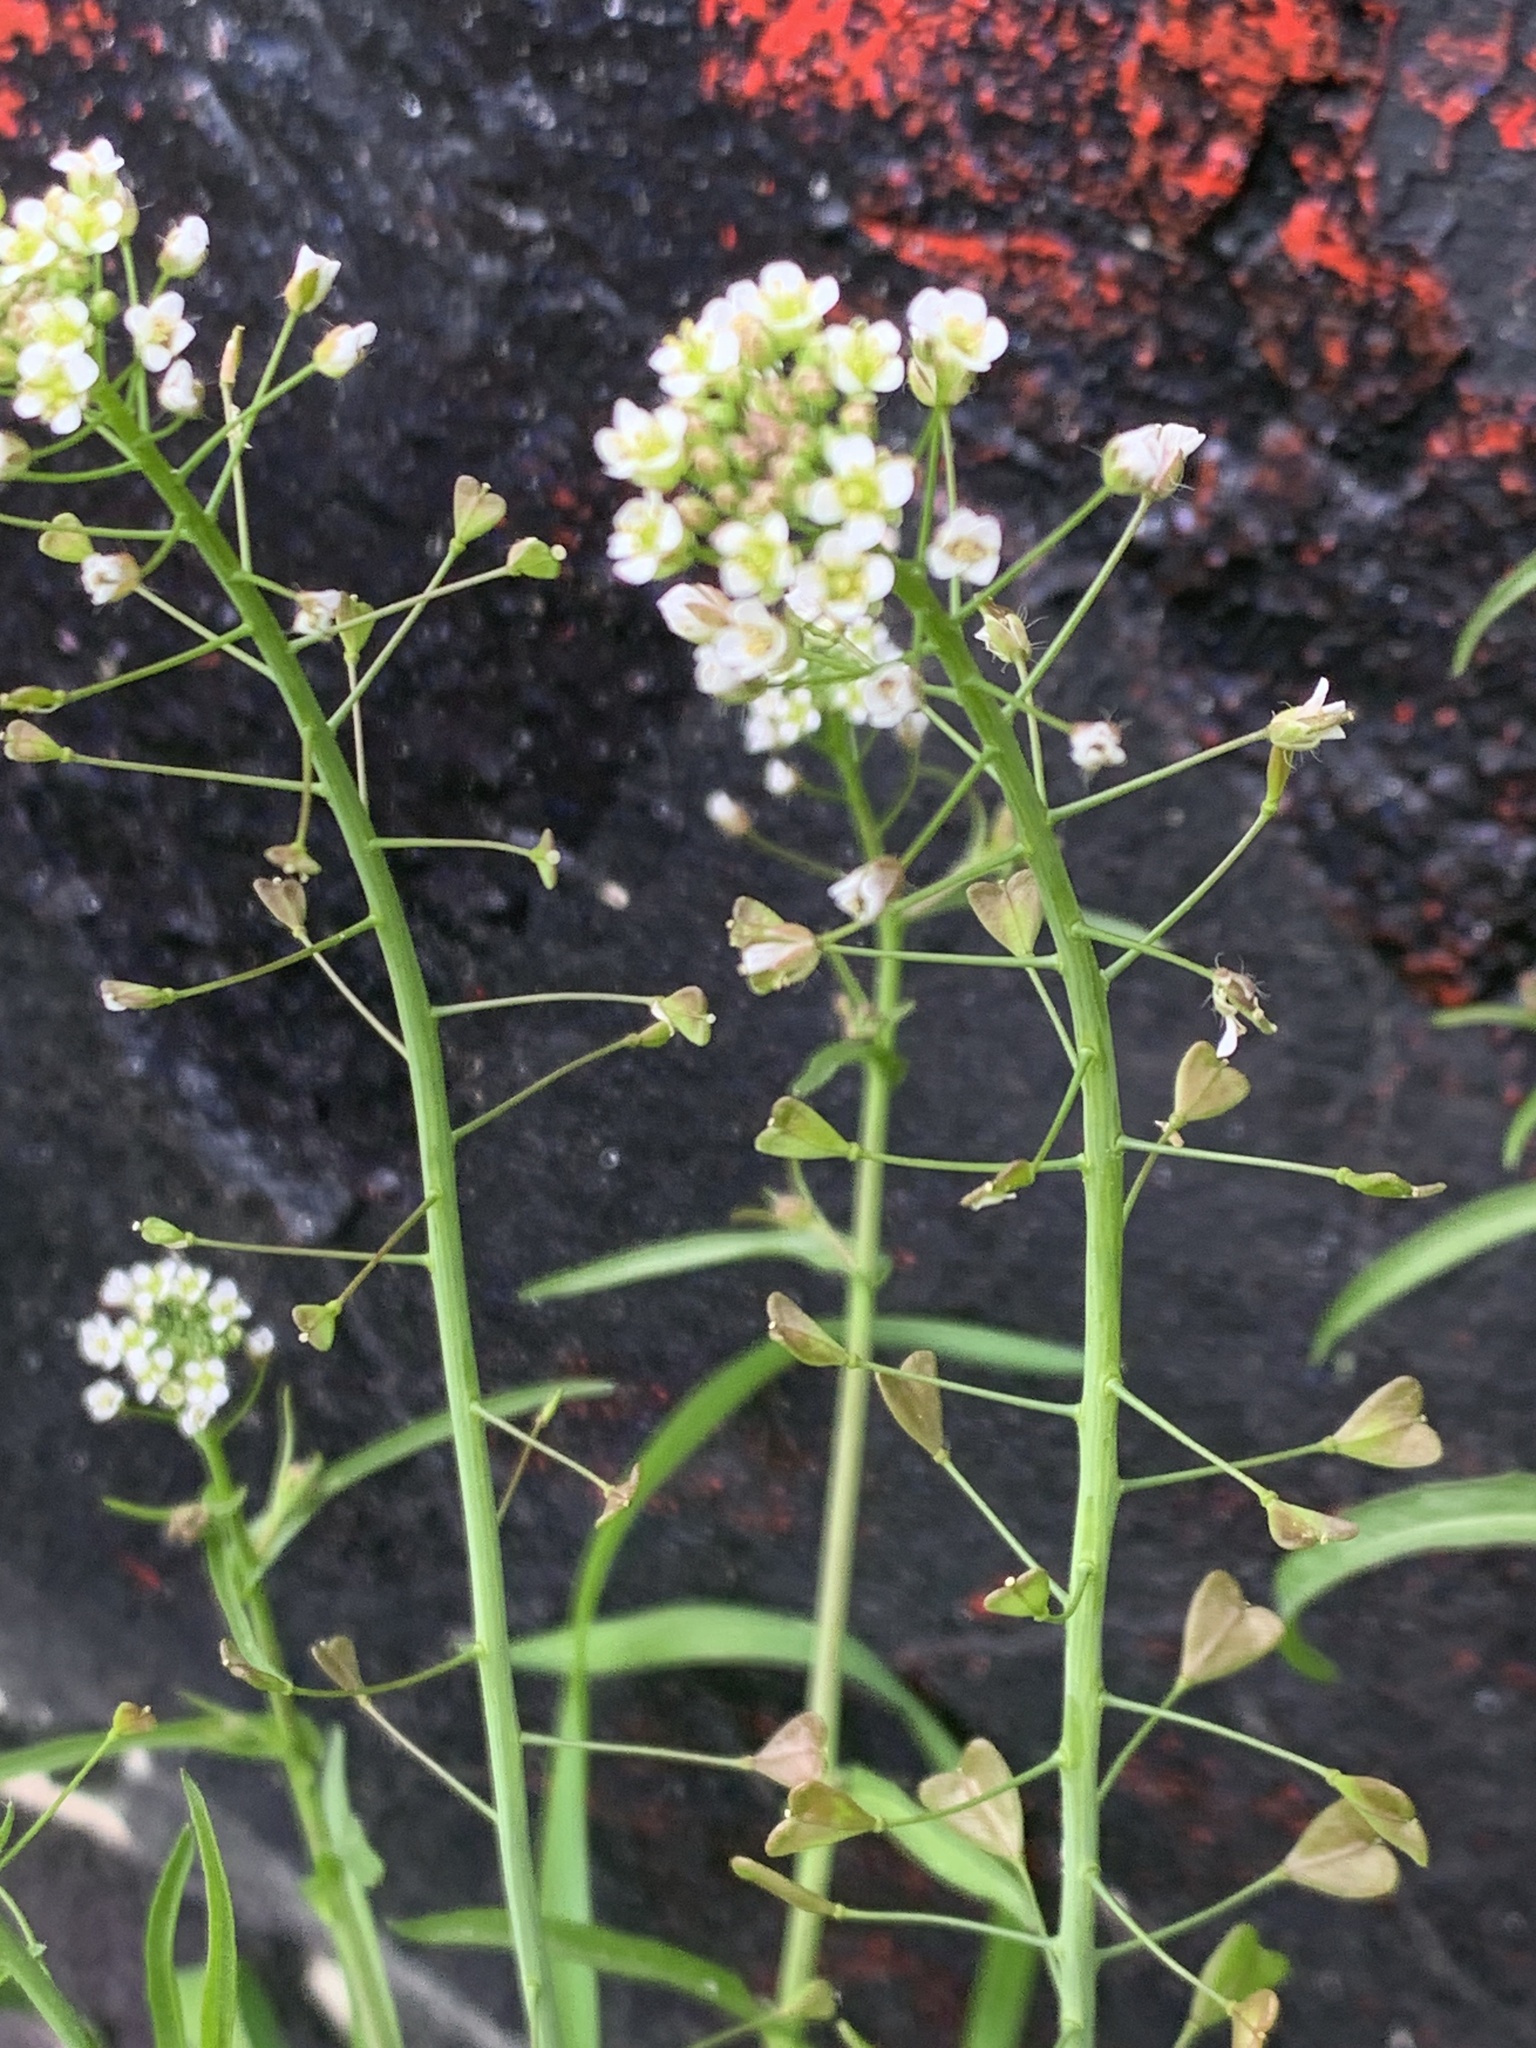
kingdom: Plantae
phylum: Tracheophyta
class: Magnoliopsida
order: Brassicales
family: Brassicaceae
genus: Capsella
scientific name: Capsella bursa-pastoris
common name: Shepherd's purse
